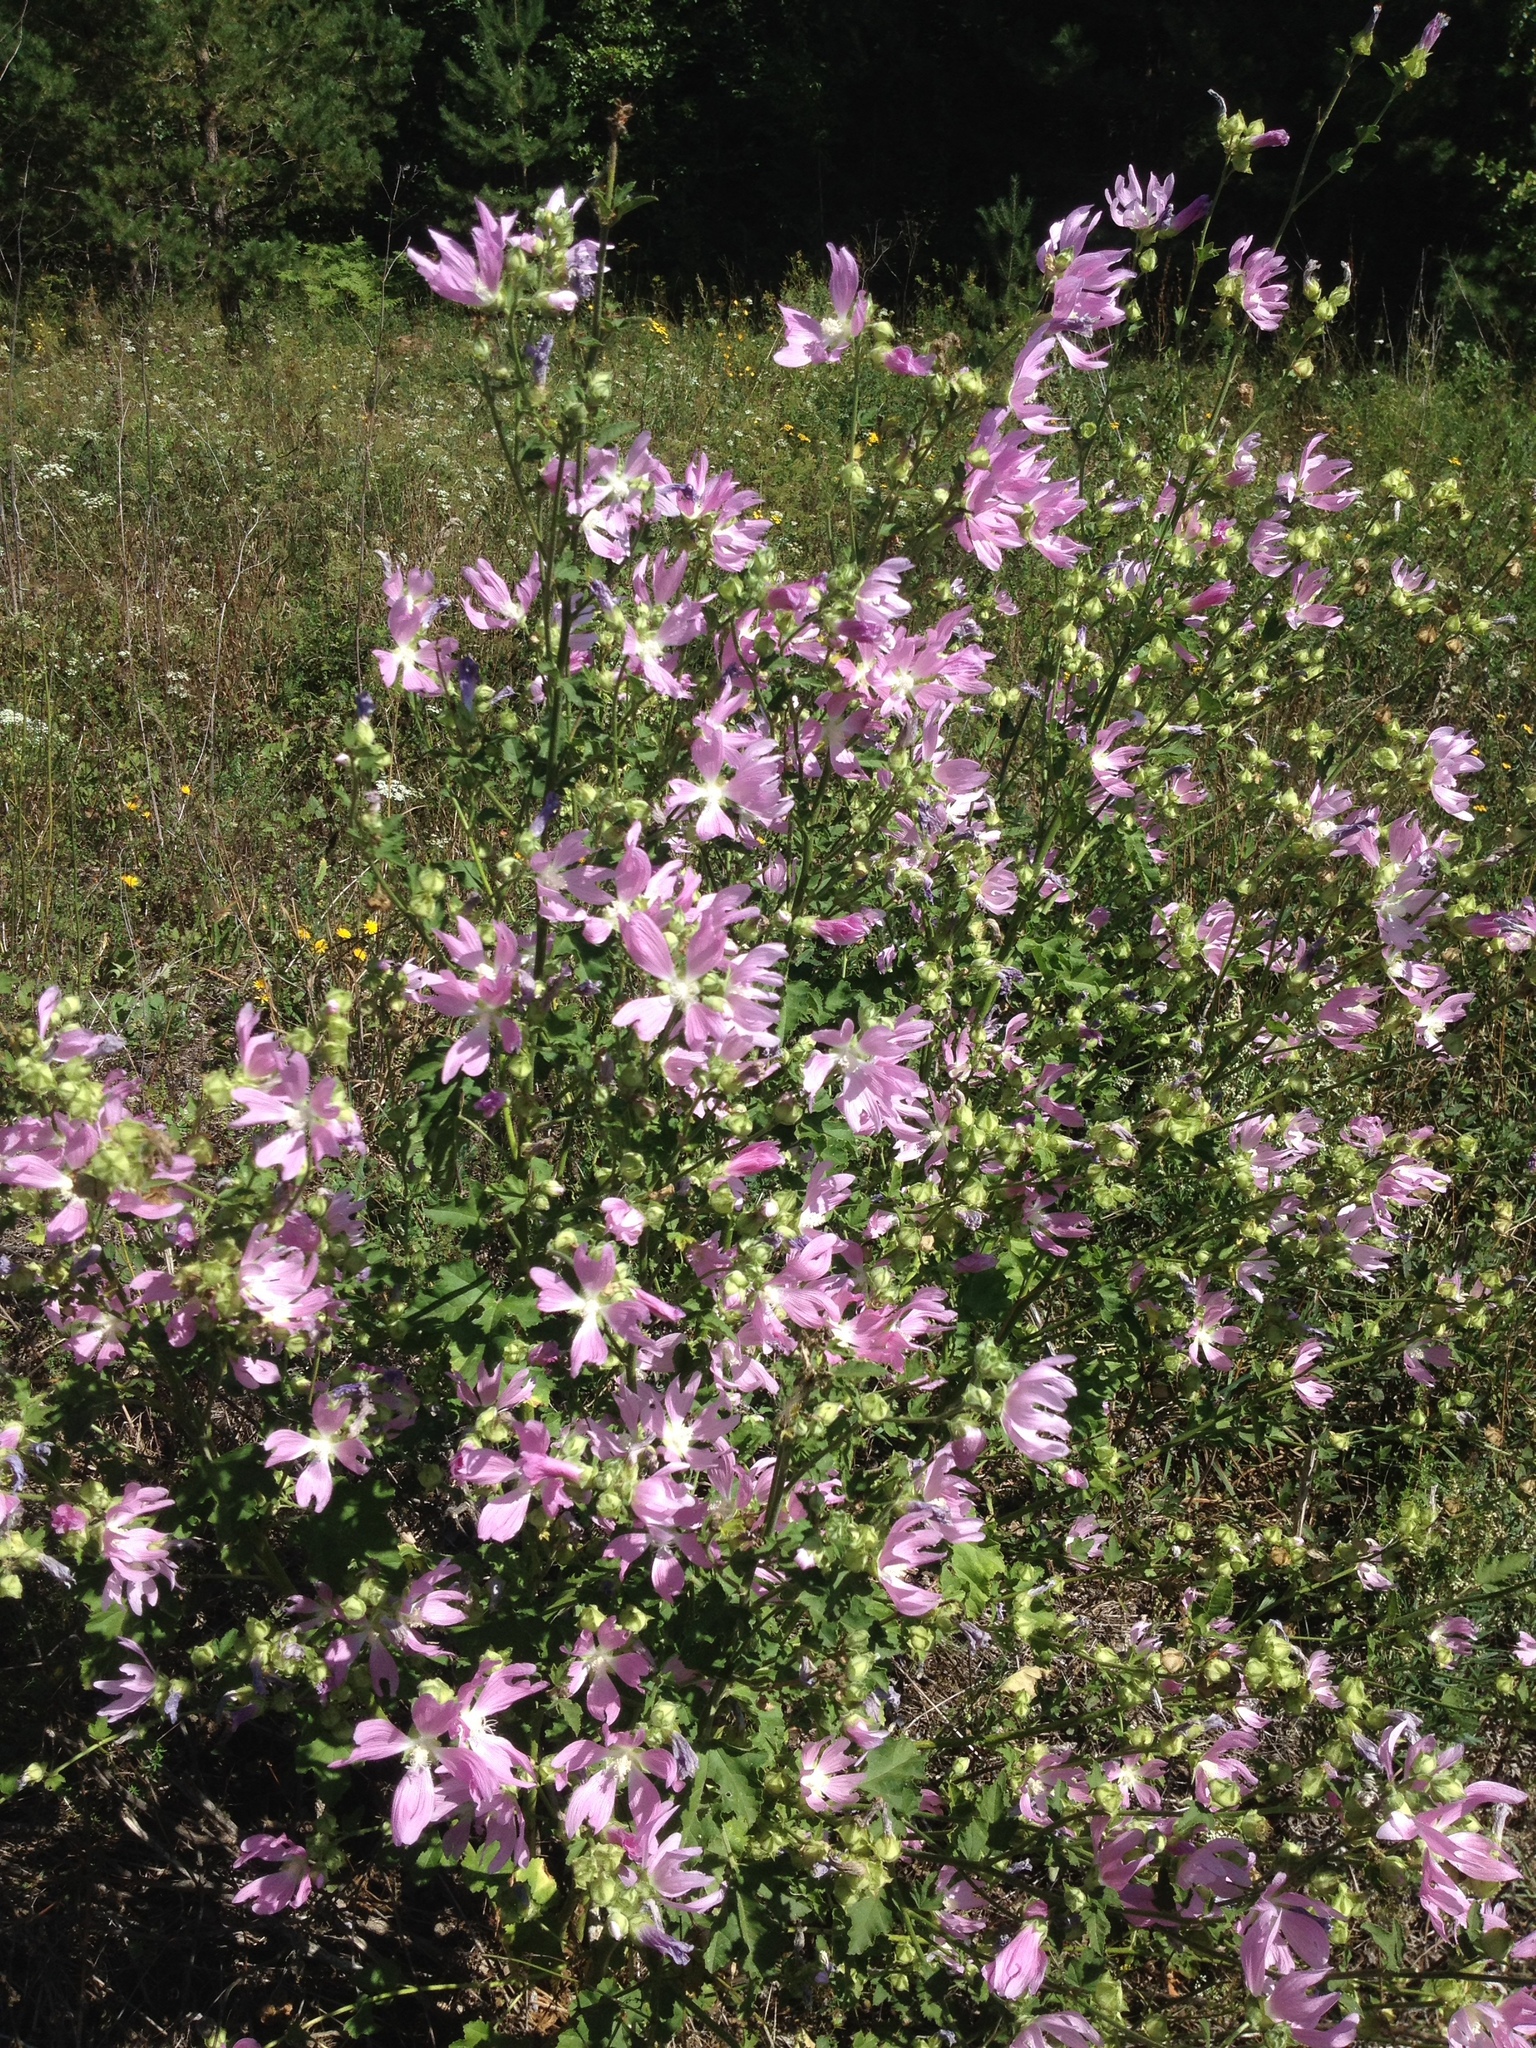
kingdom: Plantae
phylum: Tracheophyta
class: Magnoliopsida
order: Malvales
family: Malvaceae
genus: Malva
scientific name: Malva thuringiaca
